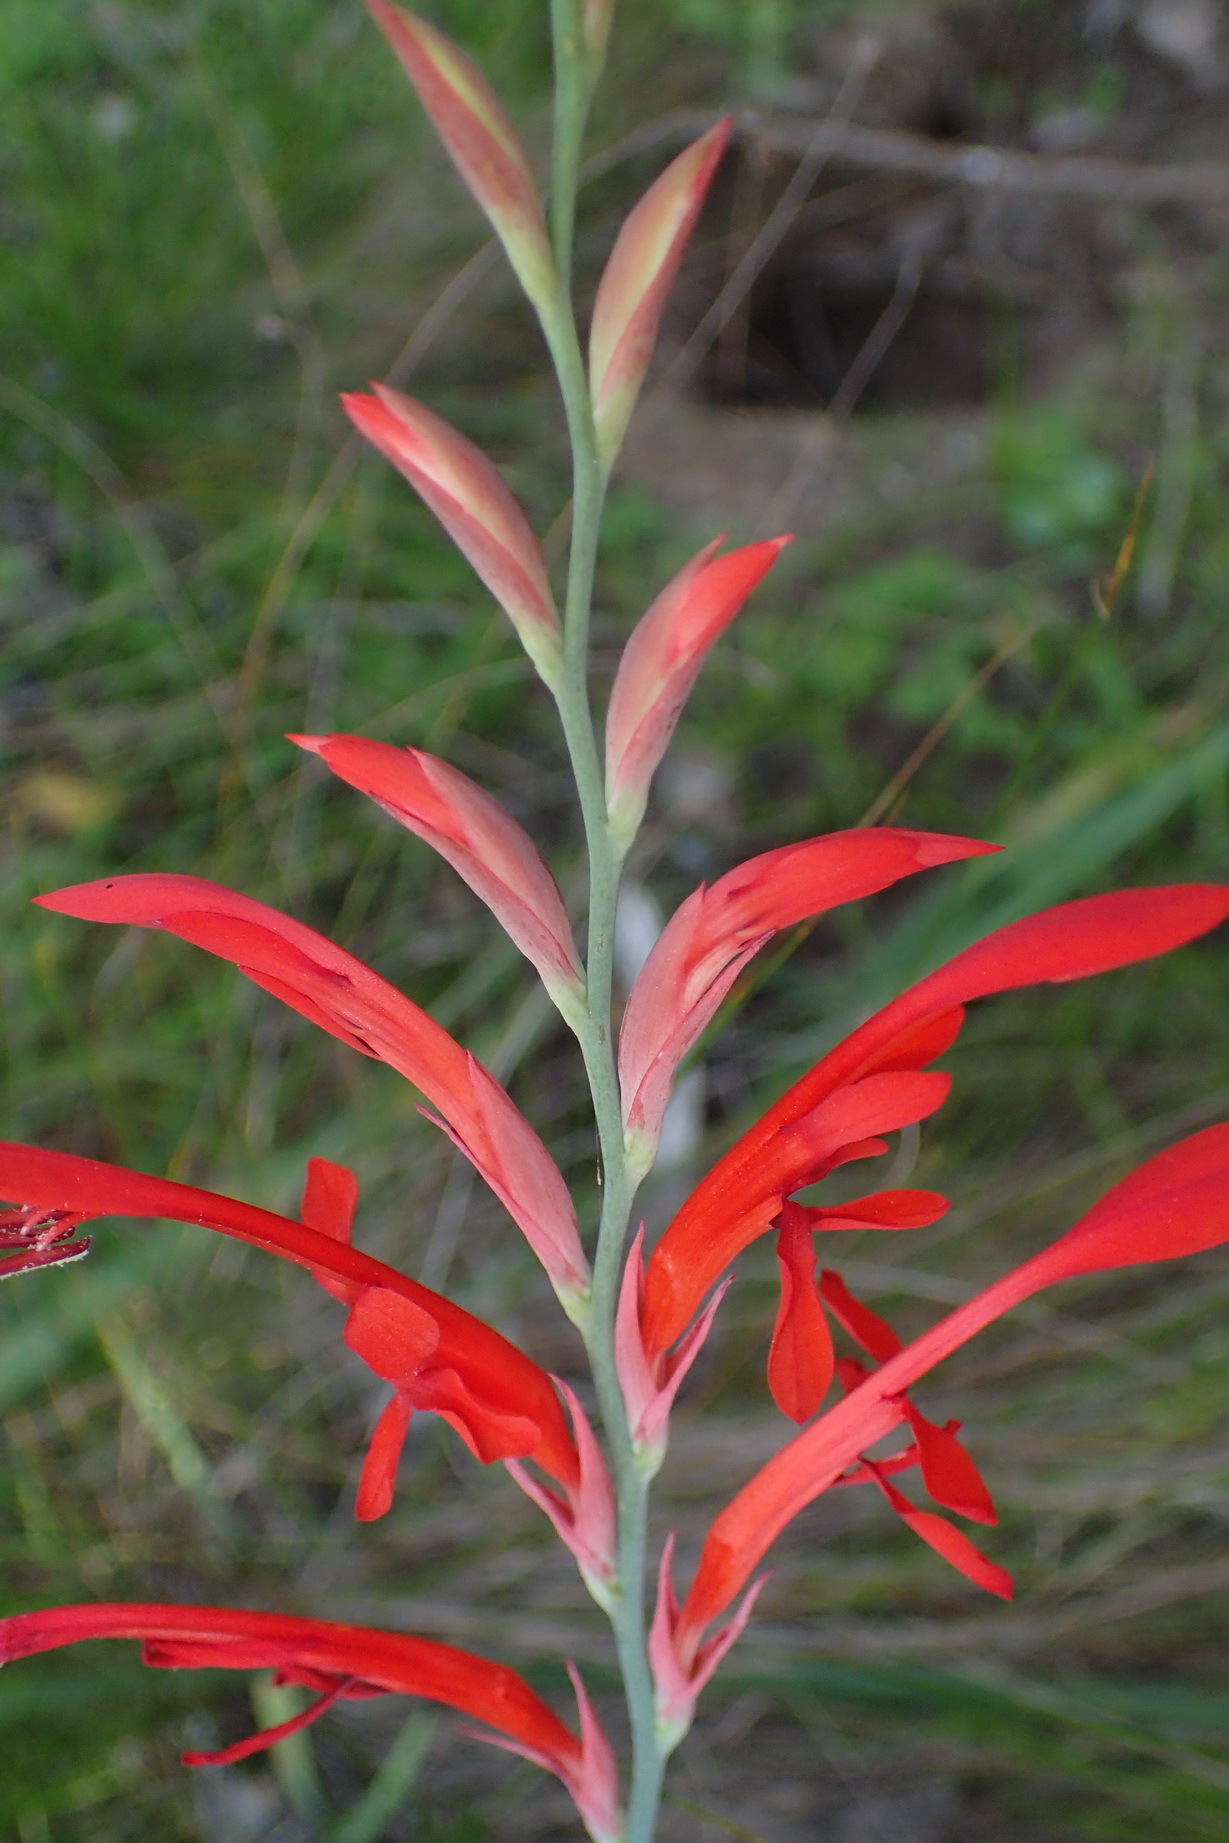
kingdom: Plantae
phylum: Tracheophyta
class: Liliopsida
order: Asparagales
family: Iridaceae
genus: Tritoniopsis
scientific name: Tritoniopsis caffra
